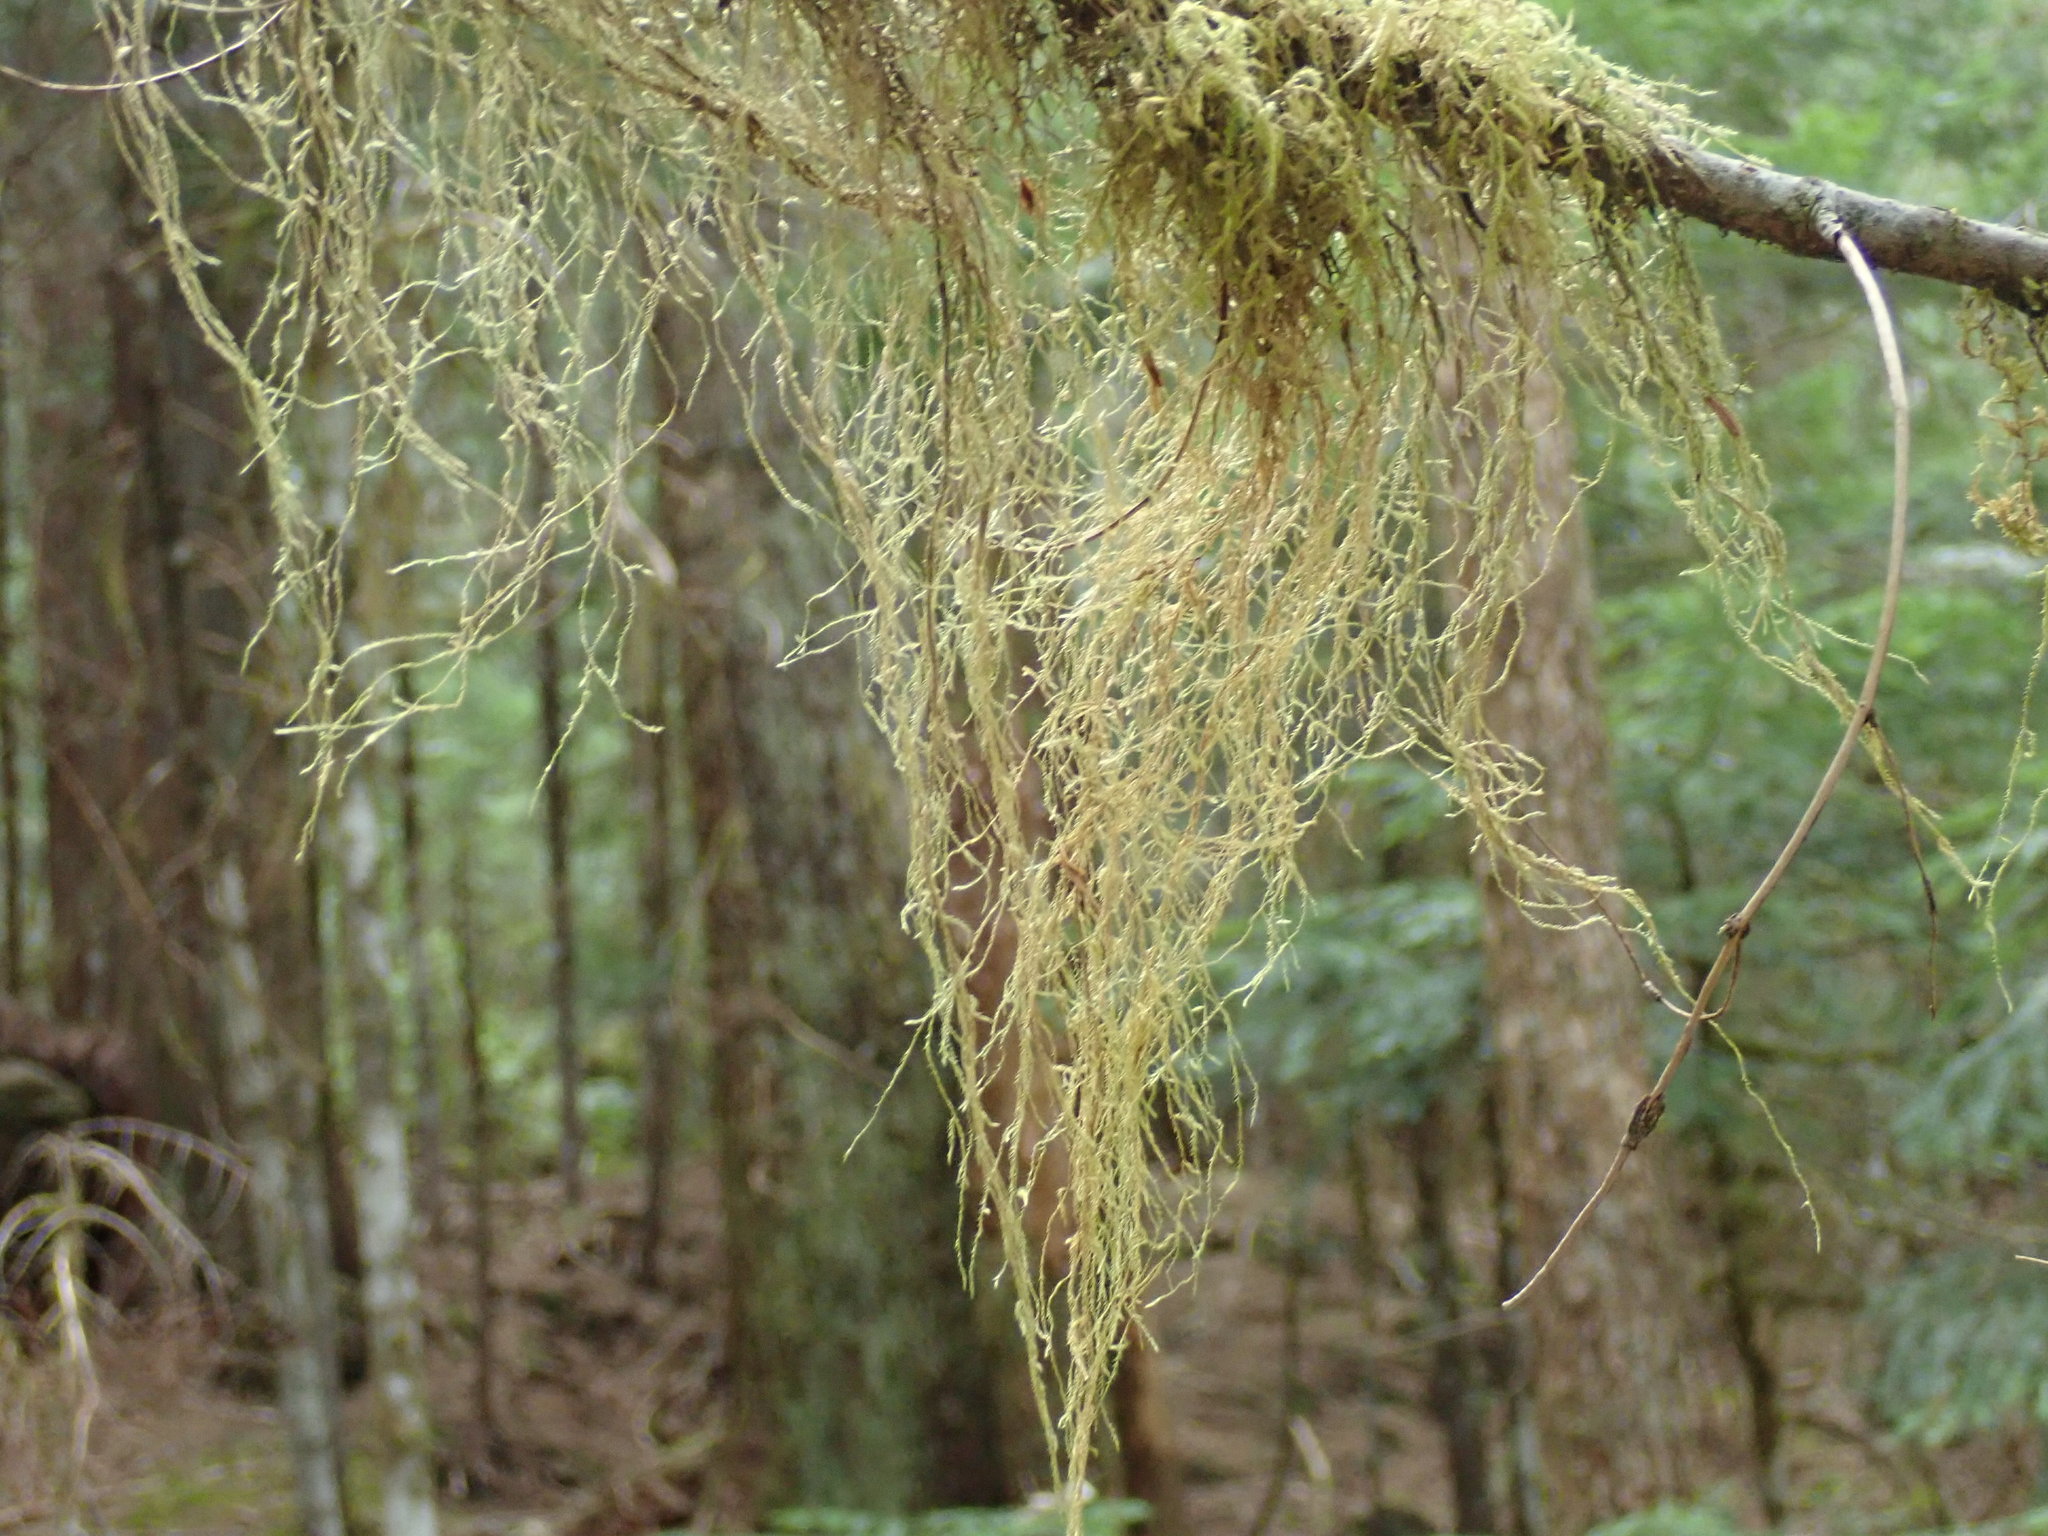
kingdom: Plantae
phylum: Bryophyta
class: Bryopsida
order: Hypnales
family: Lembophyllaceae
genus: Pseudisothecium
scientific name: Pseudisothecium stoloniferum
